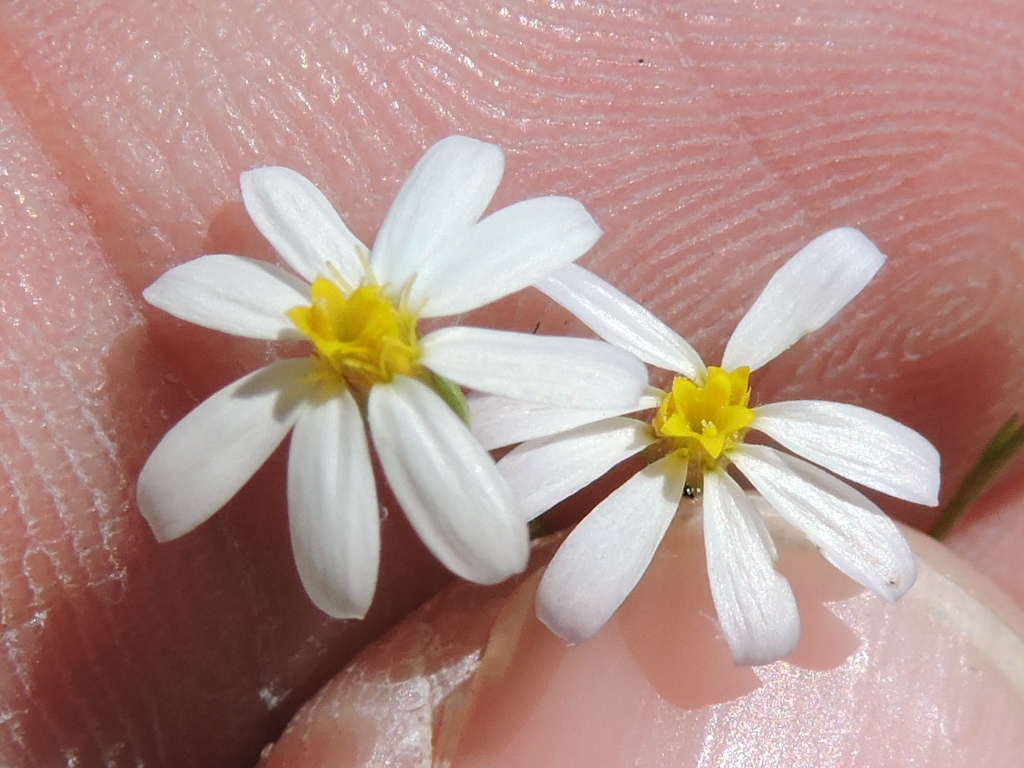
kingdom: Plantae
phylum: Tracheophyta
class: Magnoliopsida
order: Asterales
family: Asteraceae
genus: Chaetopappa
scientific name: Chaetopappa asteroides
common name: Tiny lazy daisy
